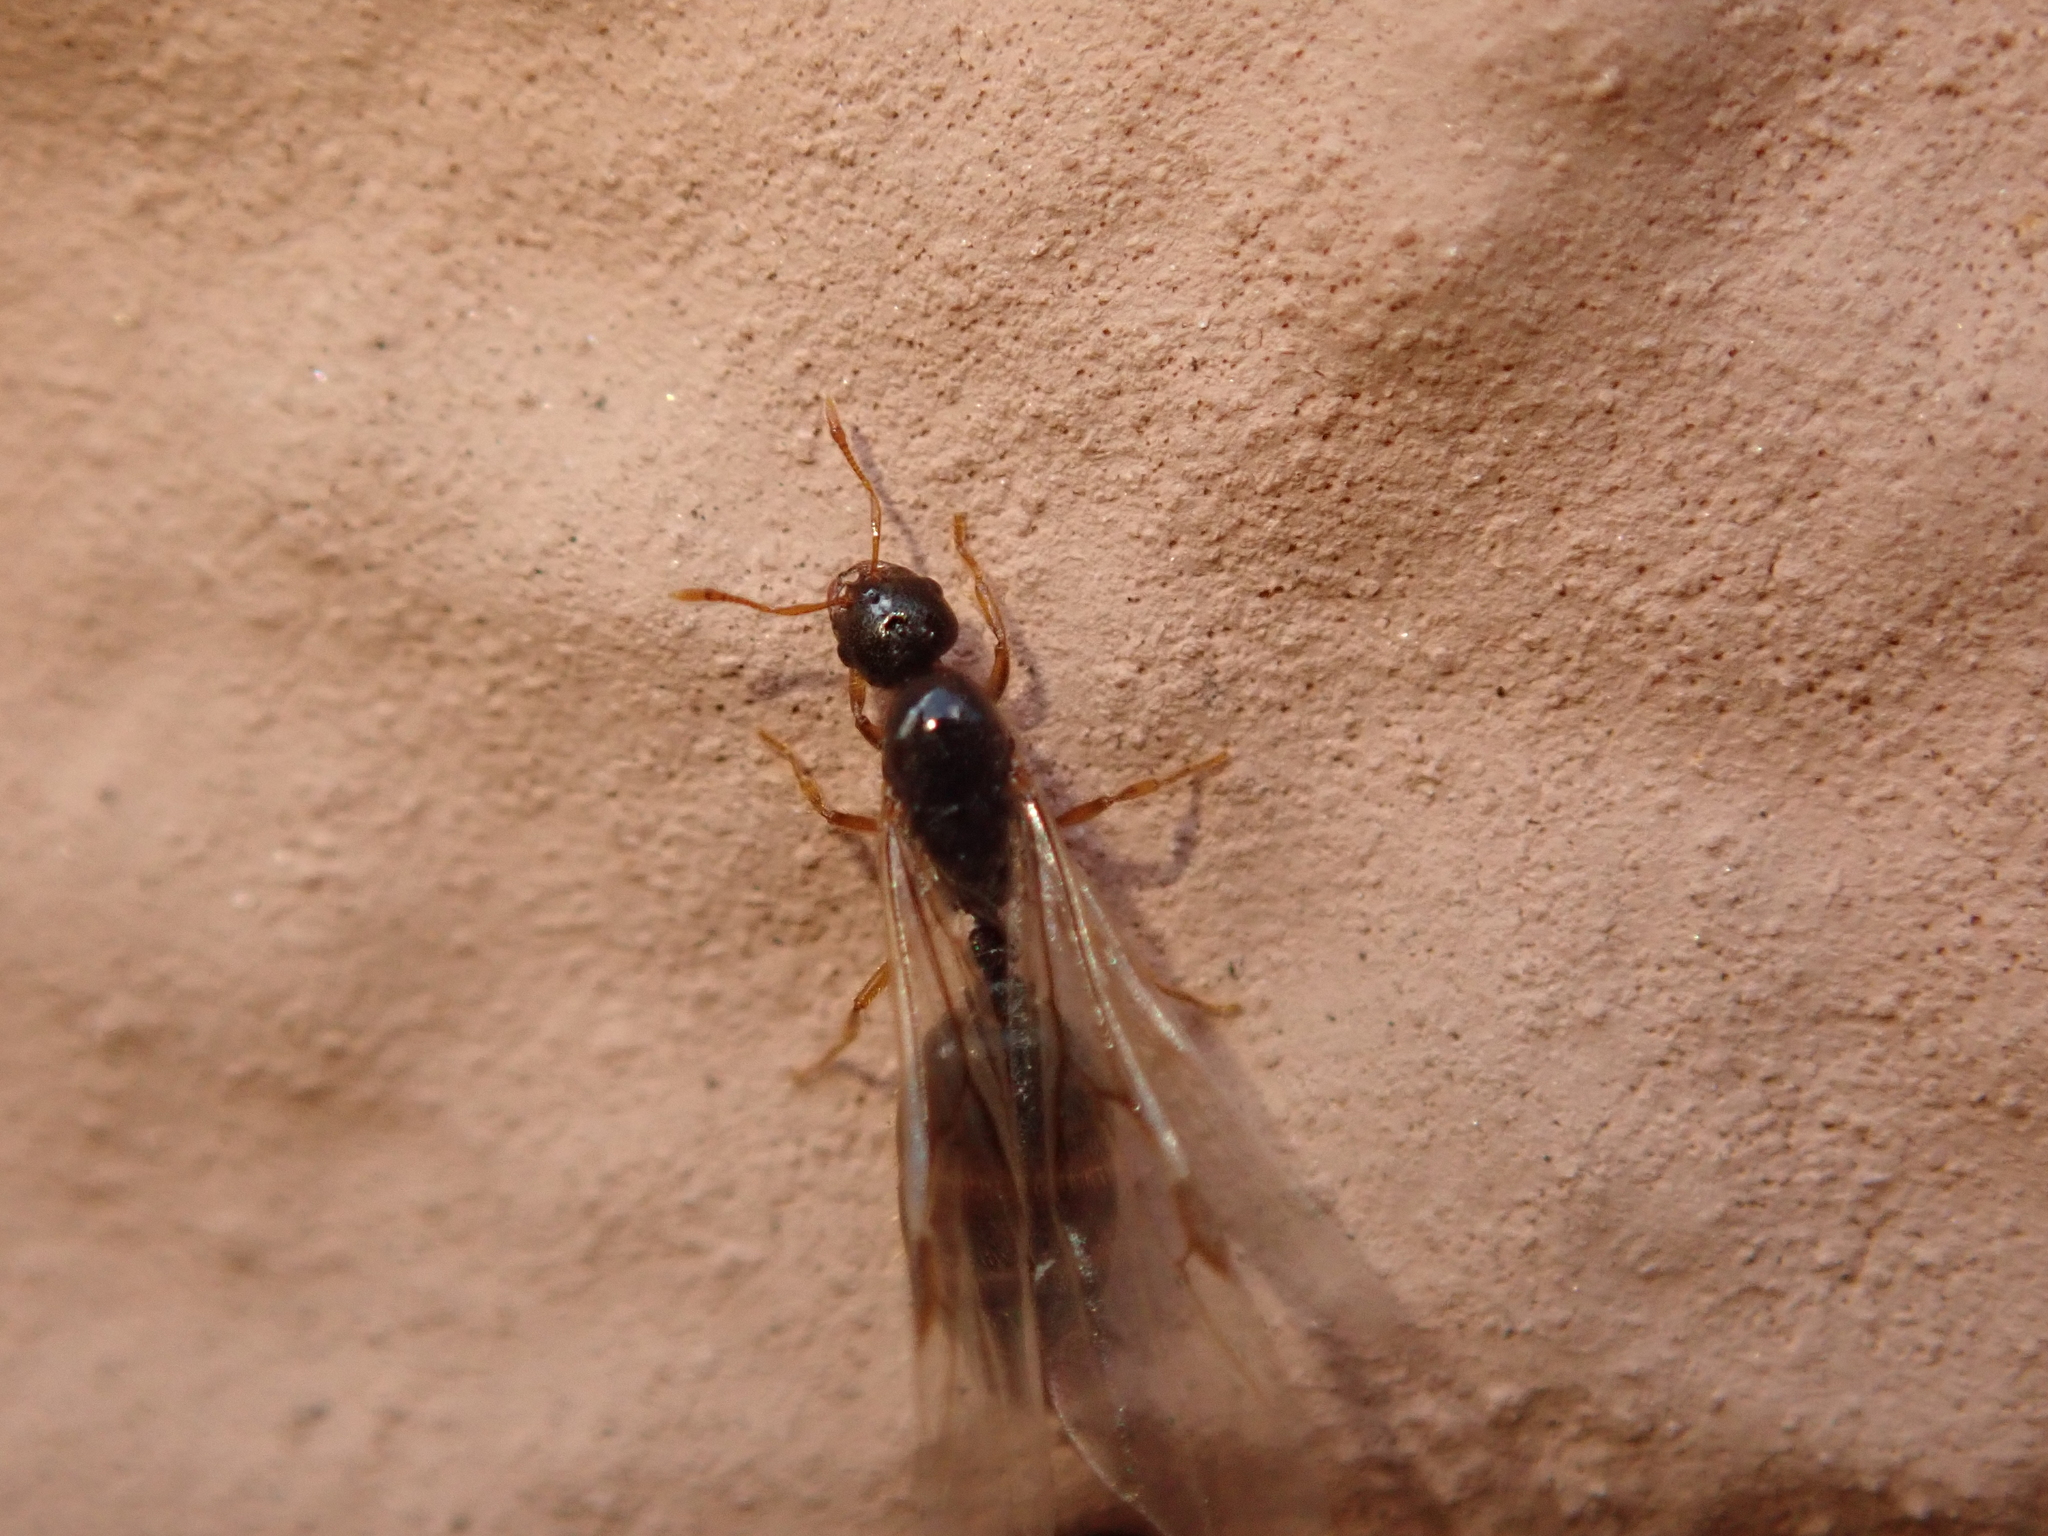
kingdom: Animalia
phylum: Arthropoda
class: Insecta
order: Hymenoptera
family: Formicidae
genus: Solenopsis
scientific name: Solenopsis fugax
